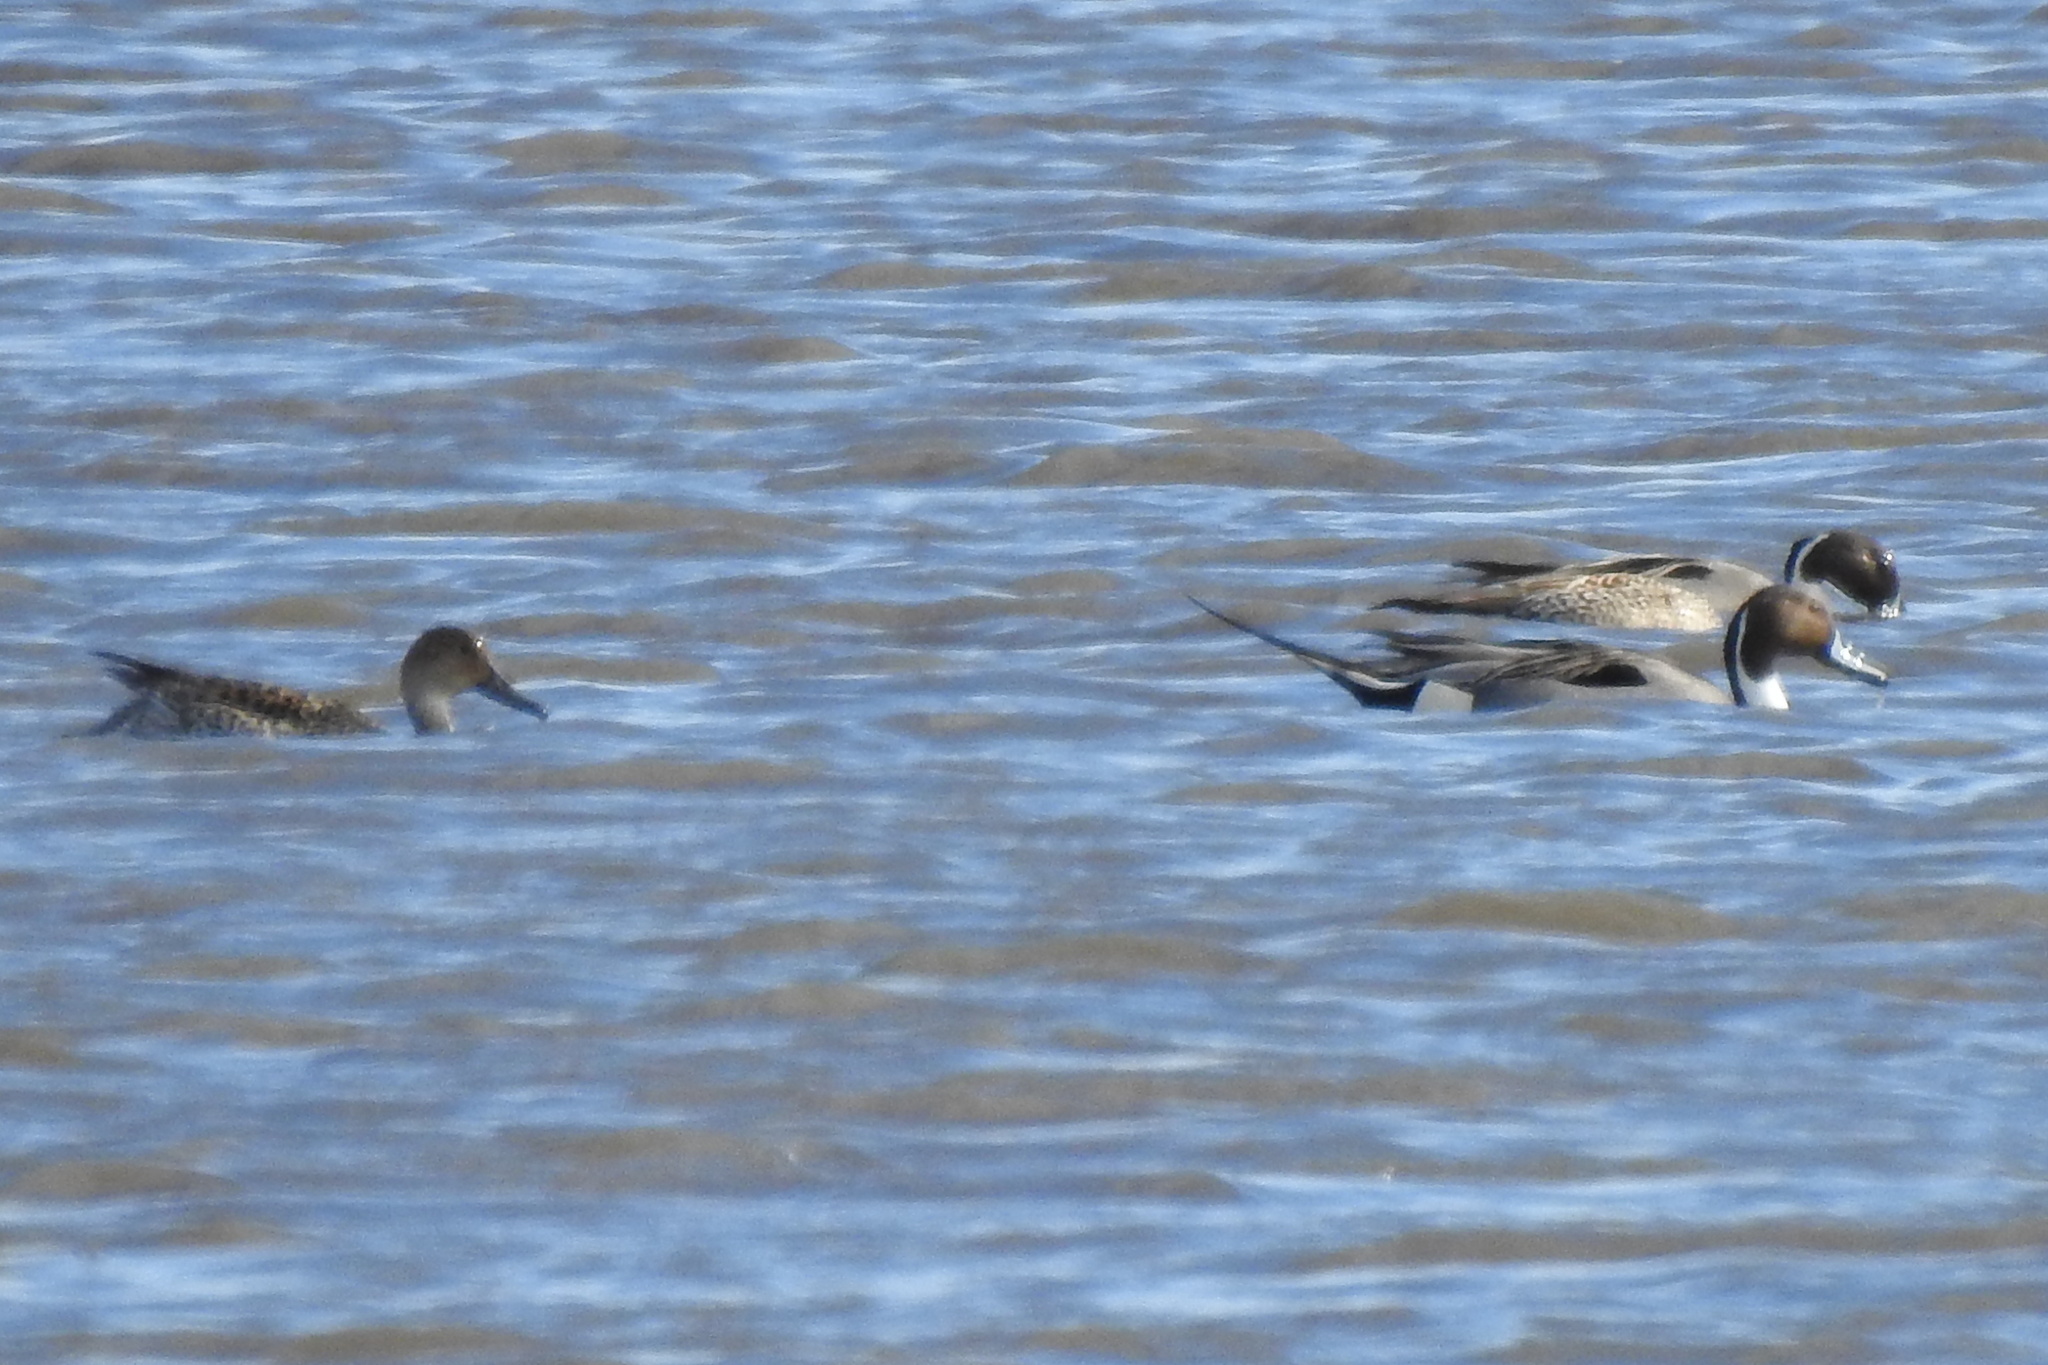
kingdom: Animalia
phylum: Chordata
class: Aves
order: Anseriformes
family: Anatidae
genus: Anas
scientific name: Anas acuta
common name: Northern pintail
